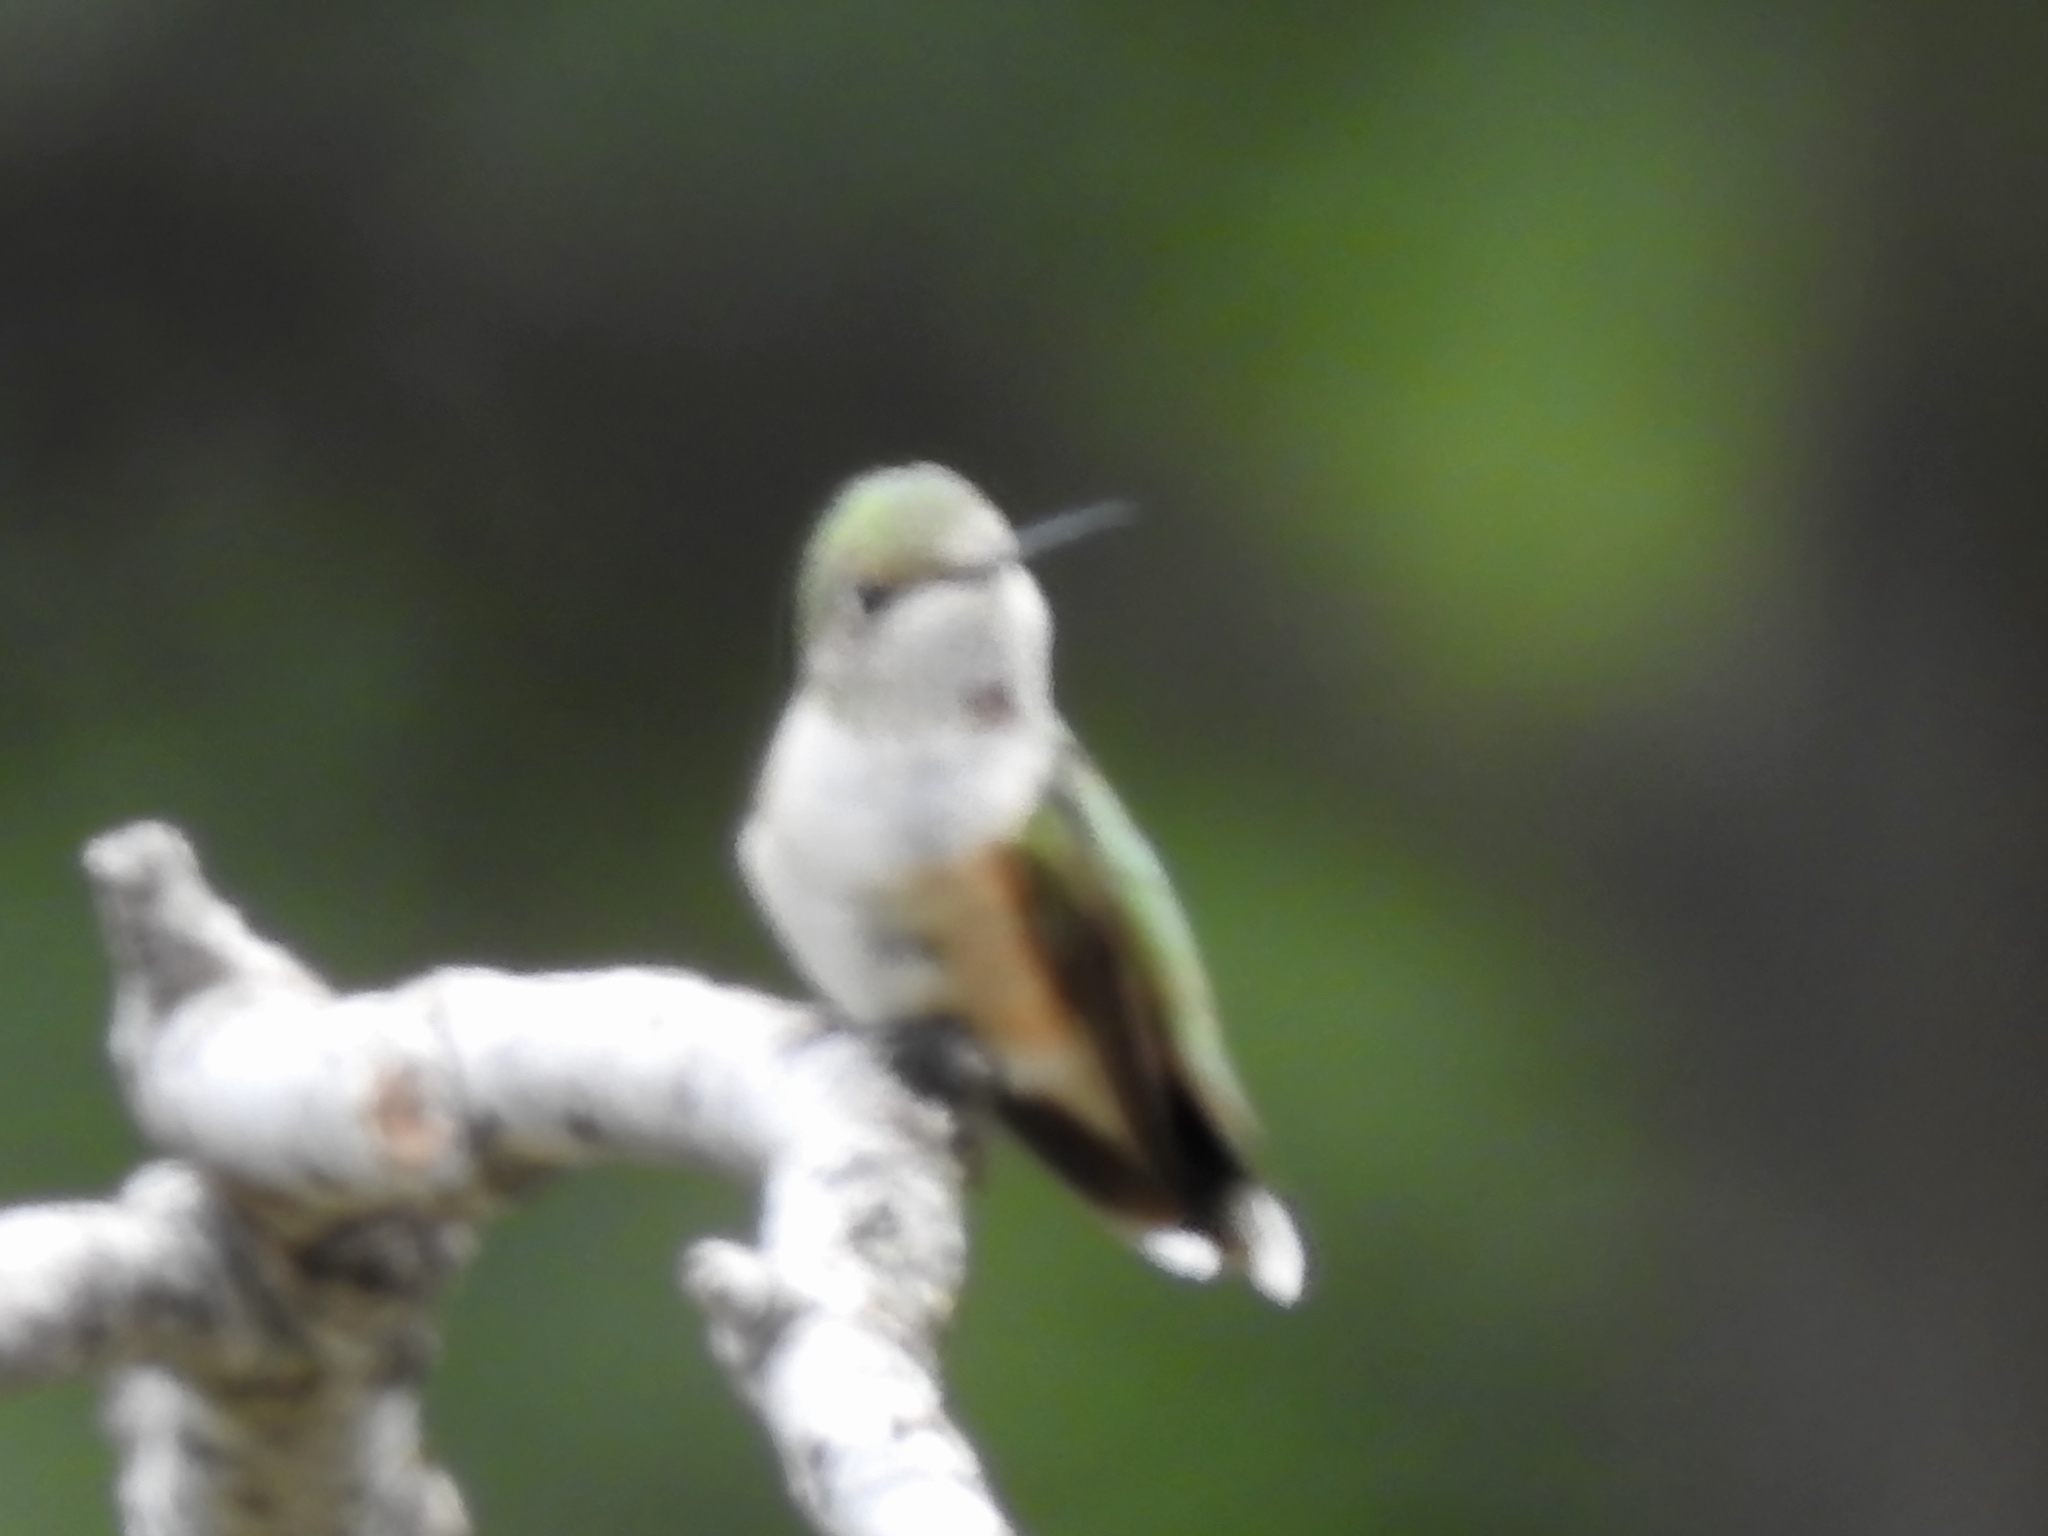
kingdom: Animalia
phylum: Chordata
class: Aves
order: Apodiformes
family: Trochilidae
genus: Selasphorus
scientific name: Selasphorus platycercus
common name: Broad-tailed hummingbird
